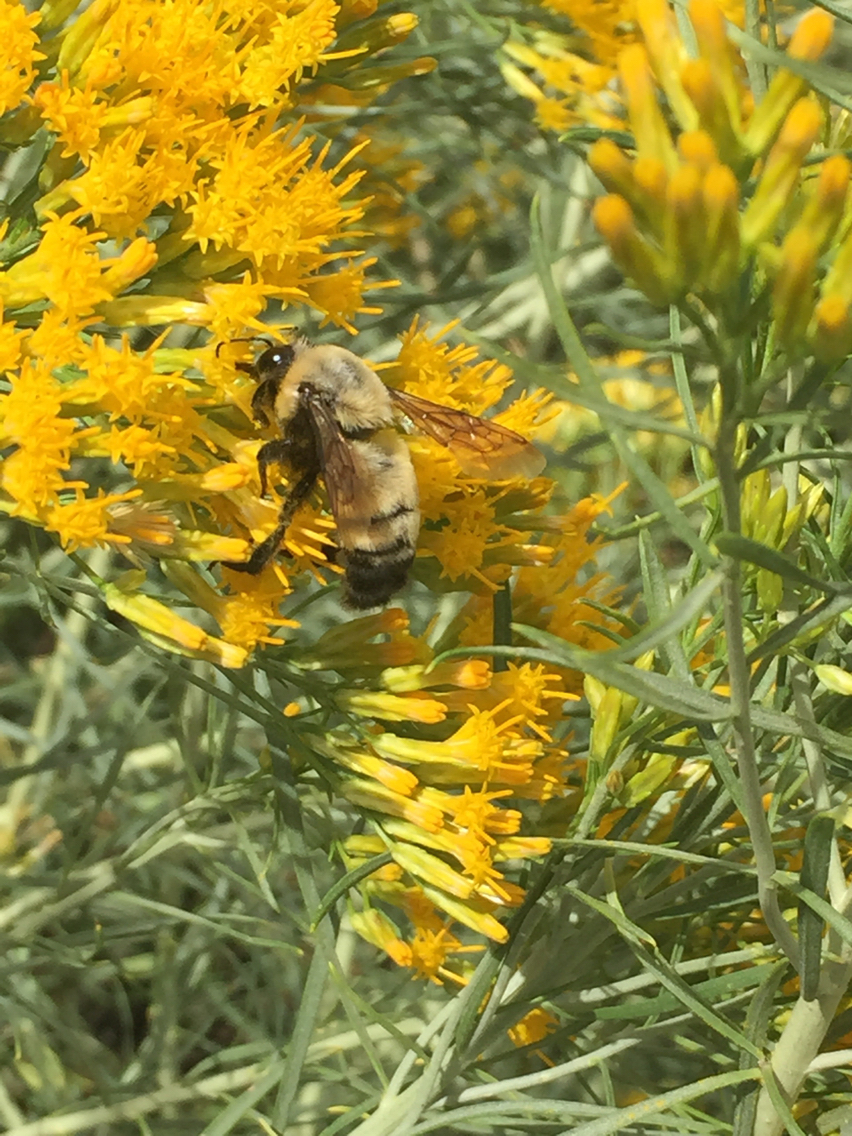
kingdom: Animalia
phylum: Arthropoda
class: Insecta
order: Hymenoptera
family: Apidae
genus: Bombus
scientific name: Bombus morrisoni
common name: Morrison bumble bee
